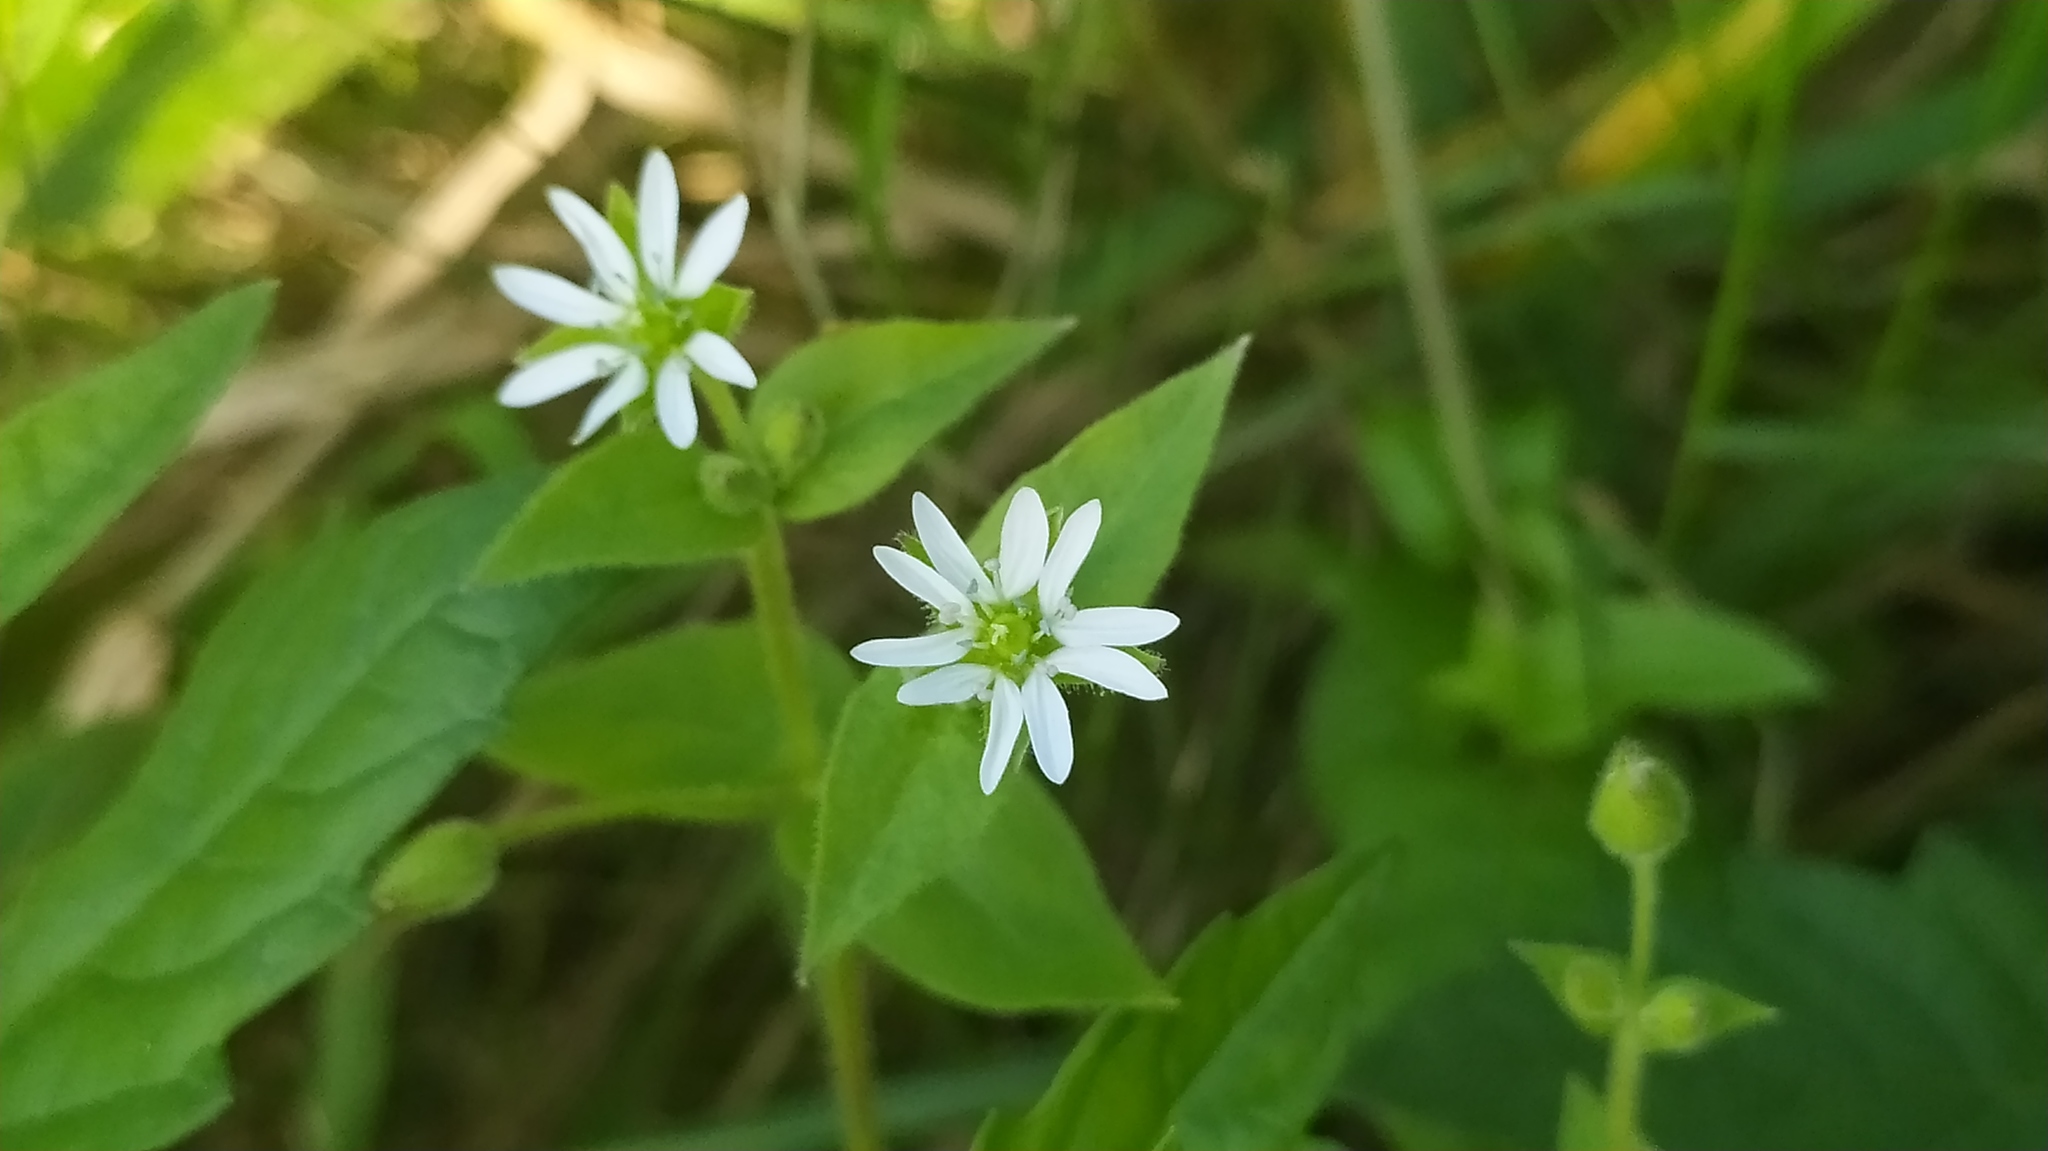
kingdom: Plantae
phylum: Tracheophyta
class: Magnoliopsida
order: Caryophyllales
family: Caryophyllaceae
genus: Stellaria
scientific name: Stellaria aquatica
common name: Water chickweed
